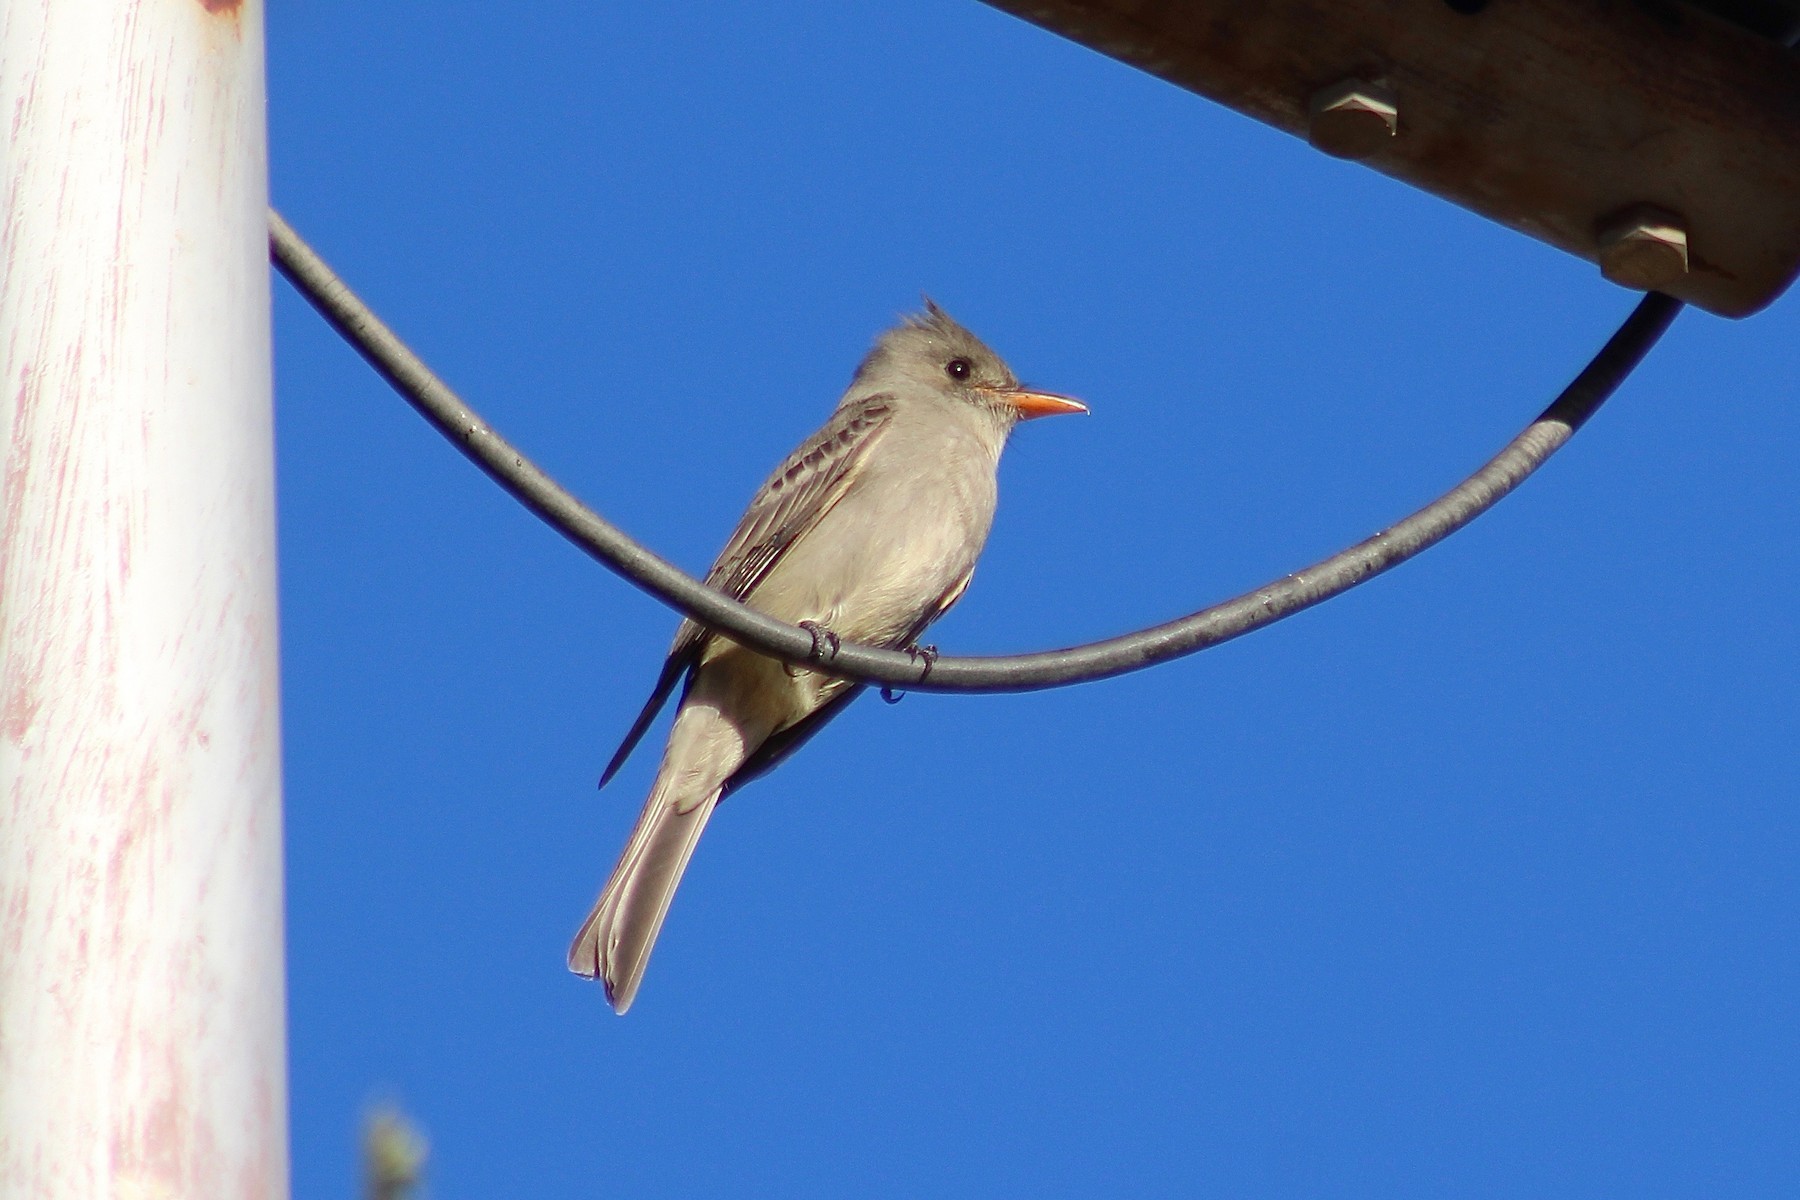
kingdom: Animalia
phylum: Chordata
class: Aves
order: Passeriformes
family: Tyrannidae
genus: Contopus
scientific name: Contopus pertinax
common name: Greater pewee
